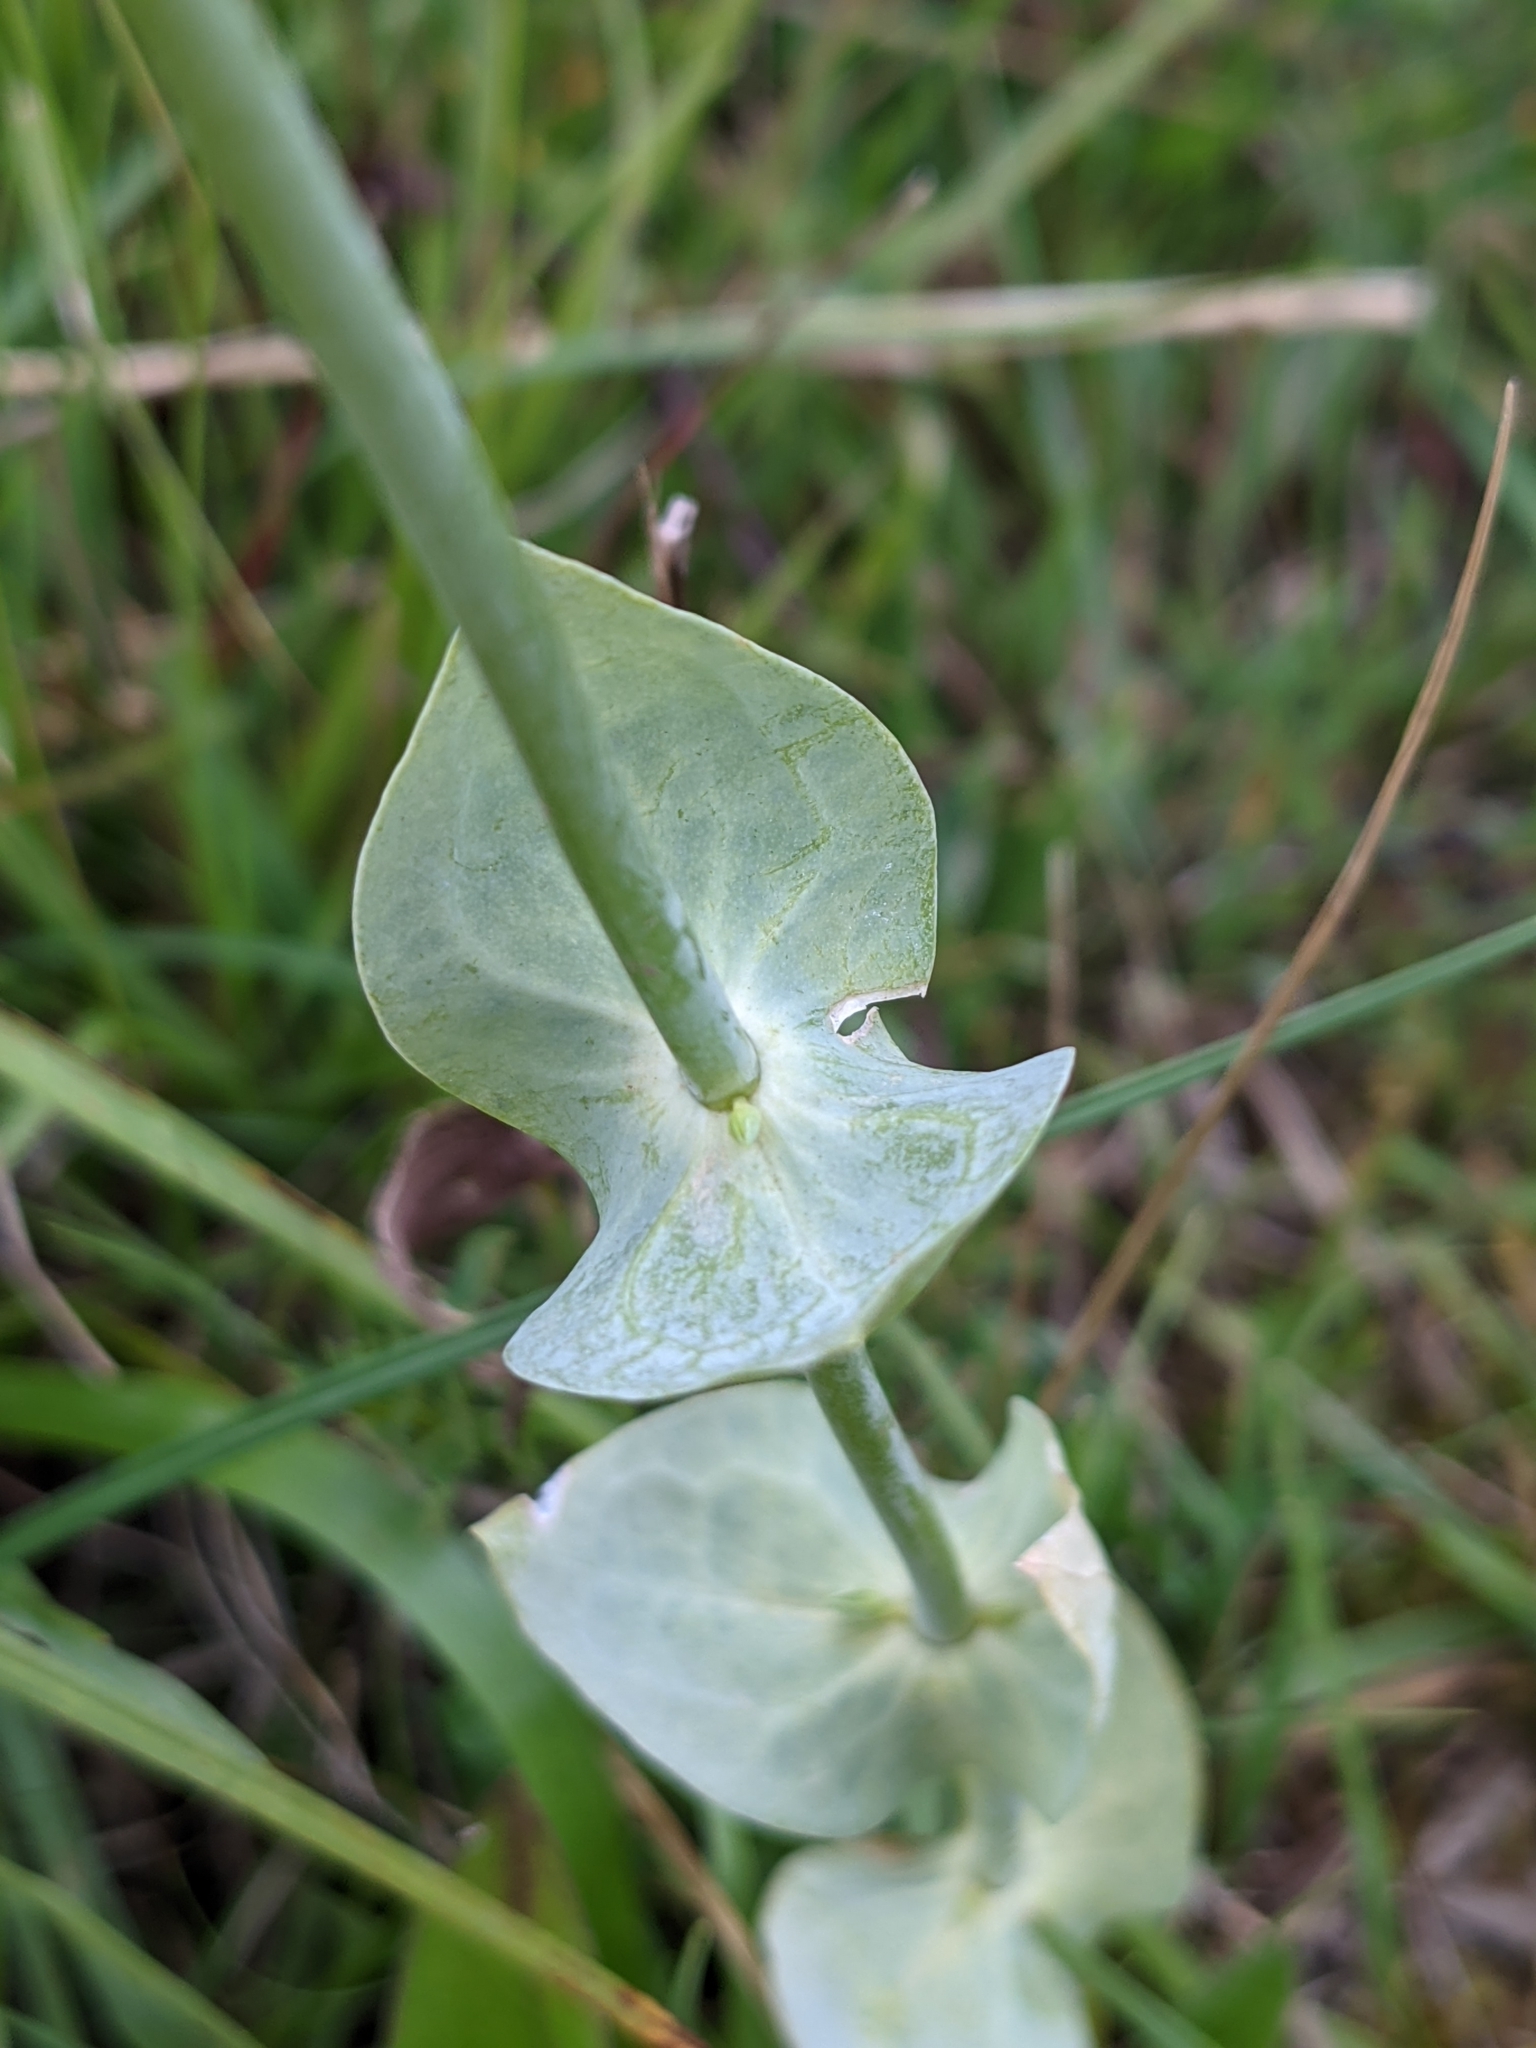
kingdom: Plantae
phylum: Tracheophyta
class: Magnoliopsida
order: Gentianales
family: Gentianaceae
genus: Blackstonia
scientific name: Blackstonia perfoliata
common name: Yellow-wort
